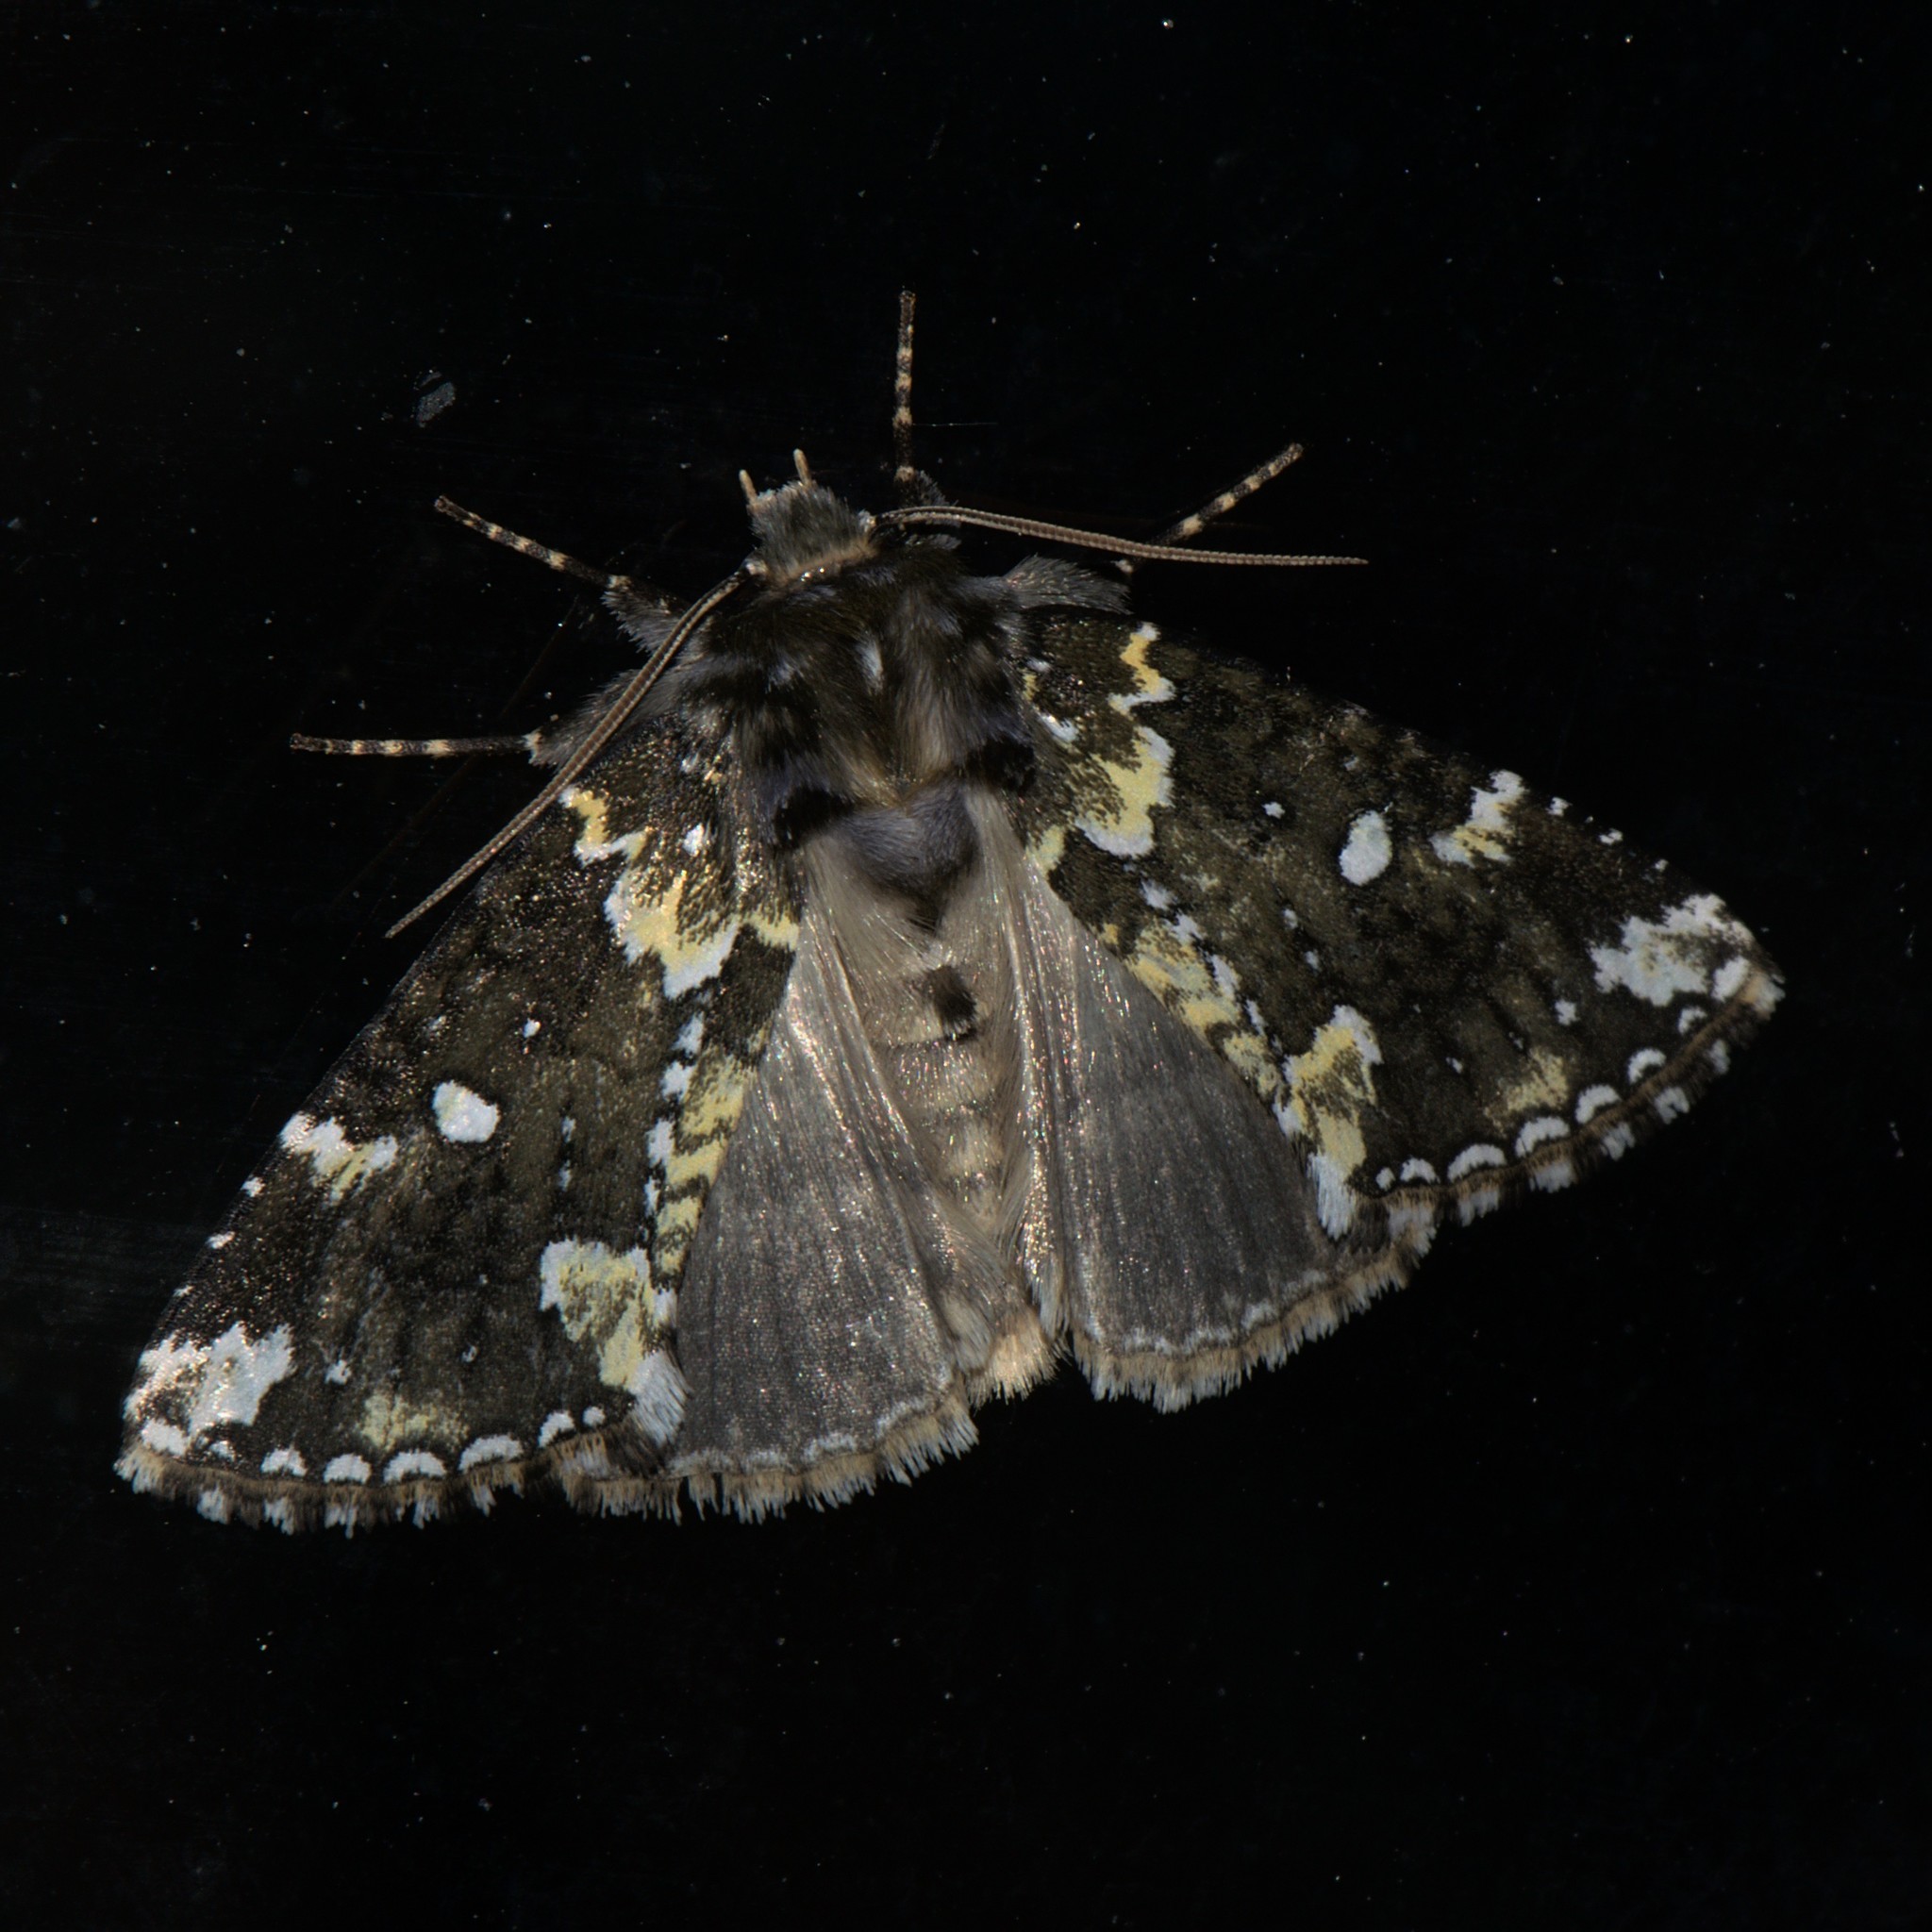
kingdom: Animalia
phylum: Arthropoda
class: Insecta
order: Lepidoptera
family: Drepanidae
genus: Gaurena
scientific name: Gaurena nigrescens
